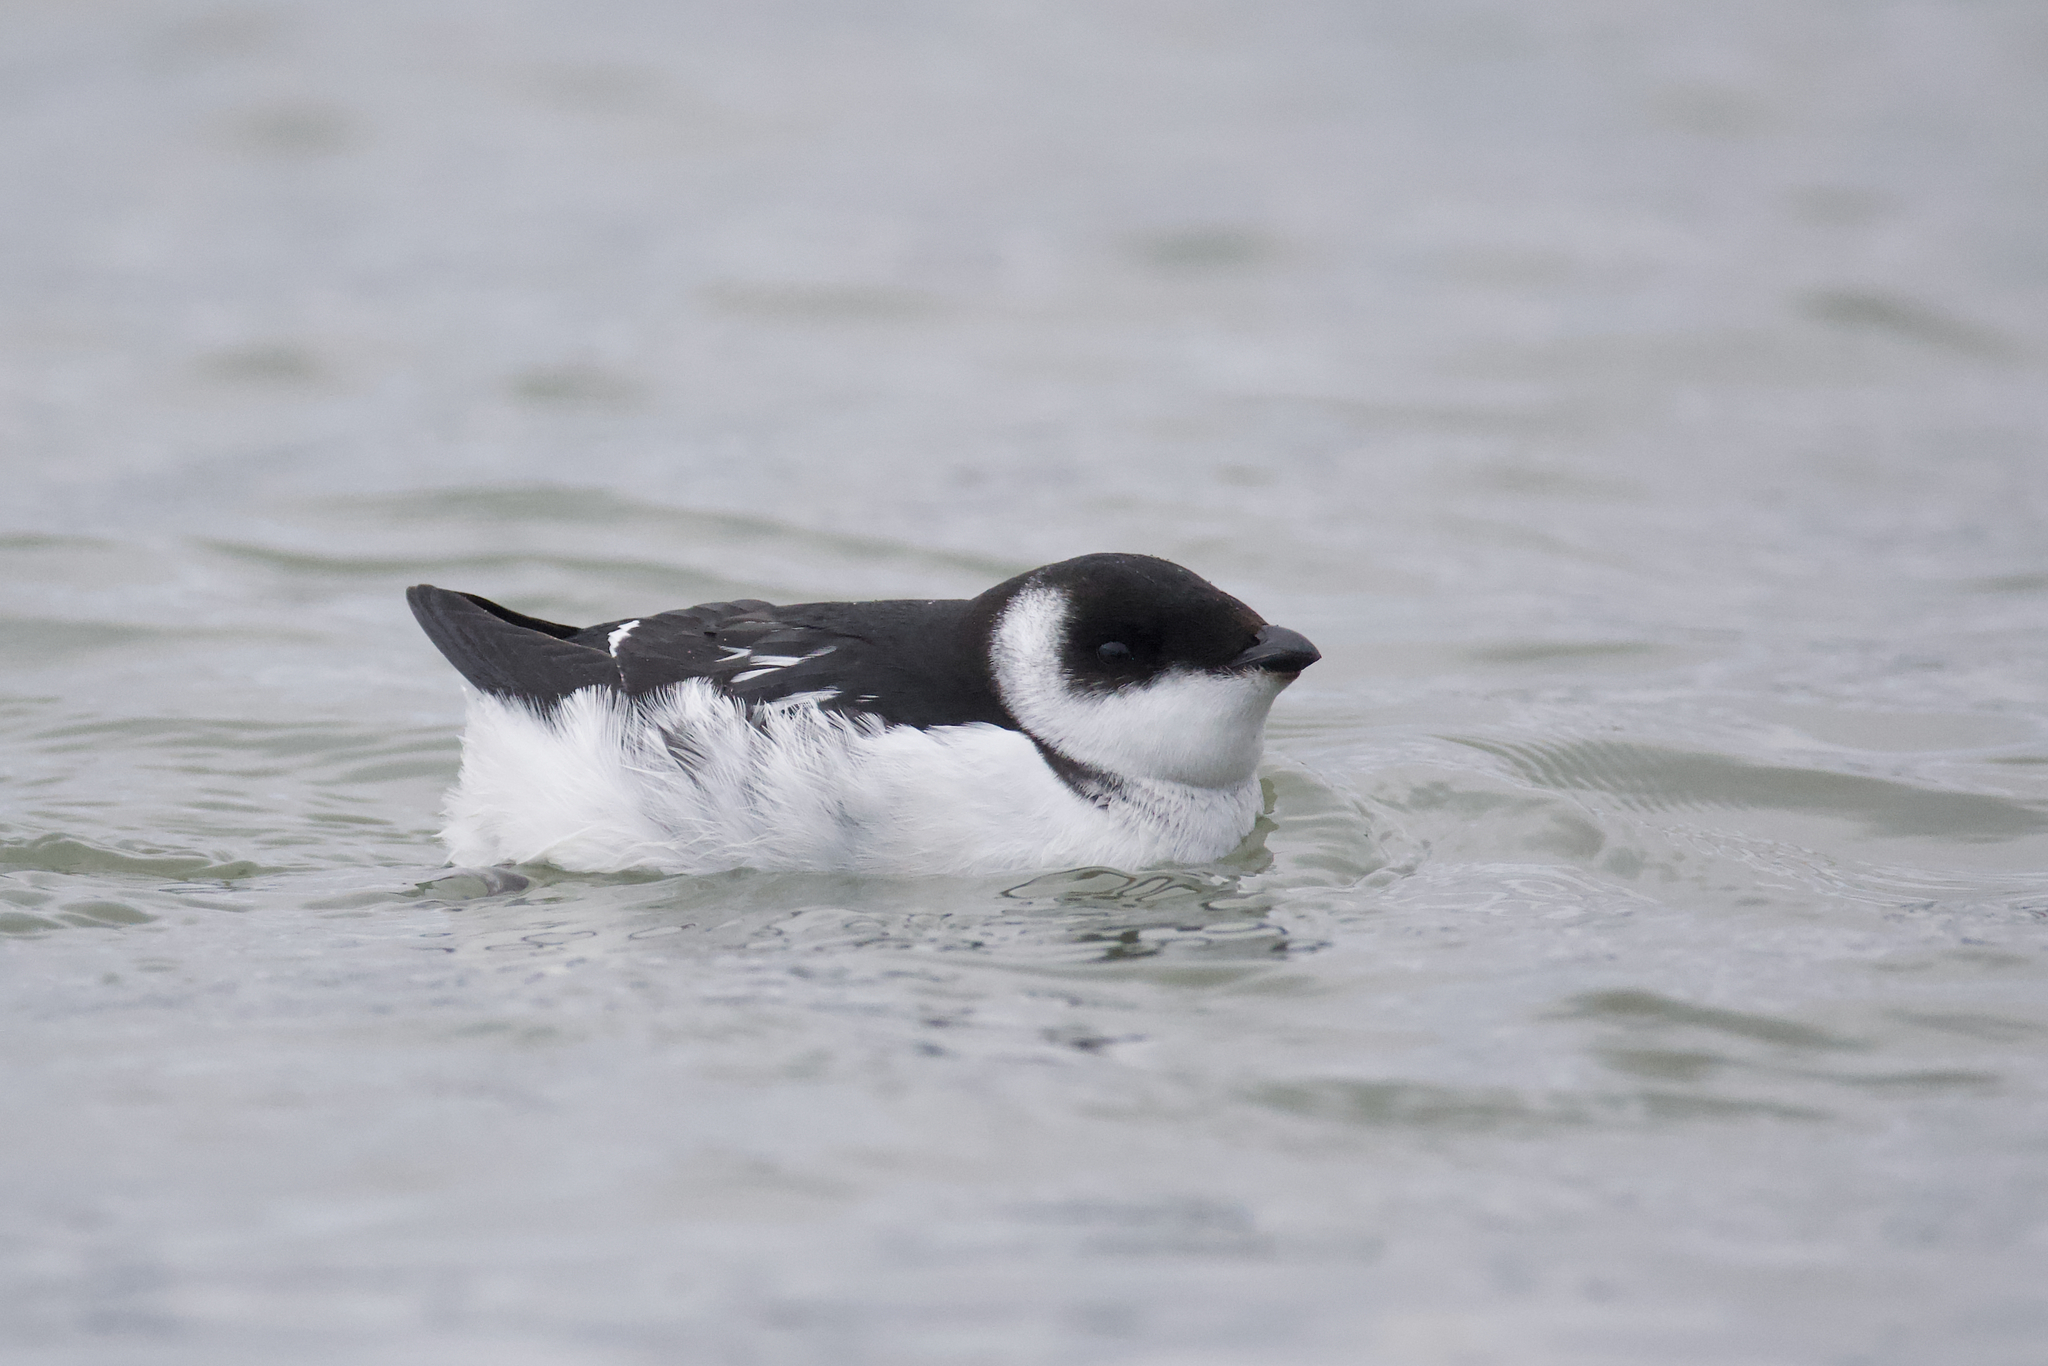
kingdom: Animalia
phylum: Chordata
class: Aves
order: Charadriiformes
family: Alcidae
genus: Alle
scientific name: Alle alle
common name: Little auk
